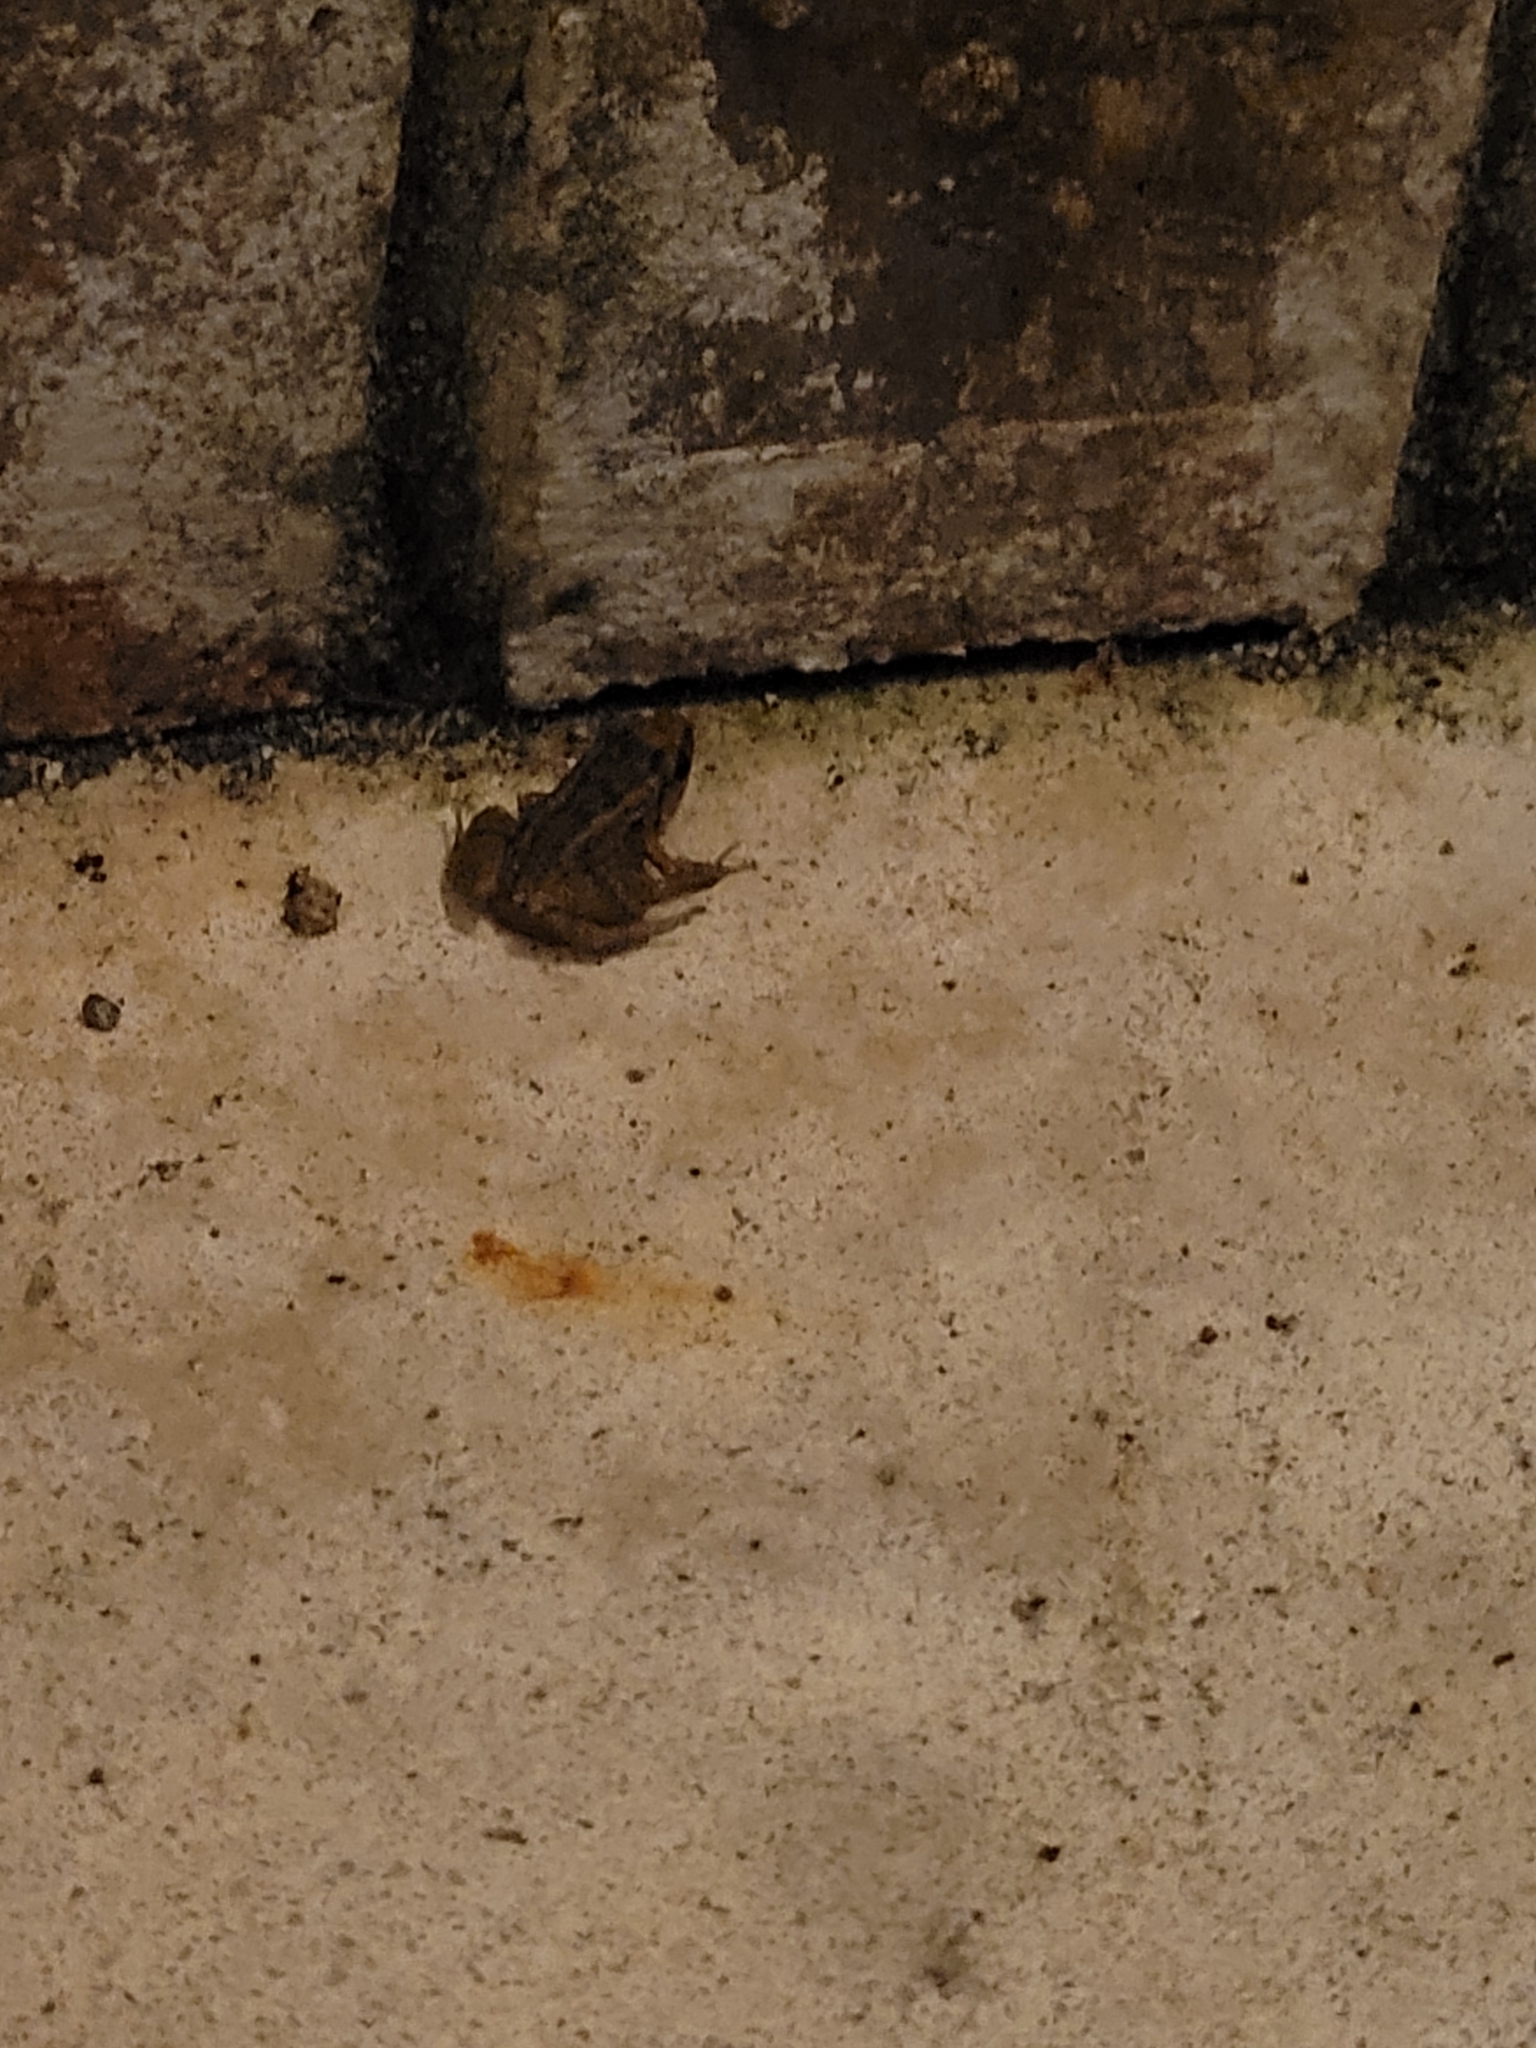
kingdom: Animalia
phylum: Chordata
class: Amphibia
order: Anura
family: Eleutherodactylidae
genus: Eleutherodactylus
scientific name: Eleutherodactylus planirostris
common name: Greenhouse frog
